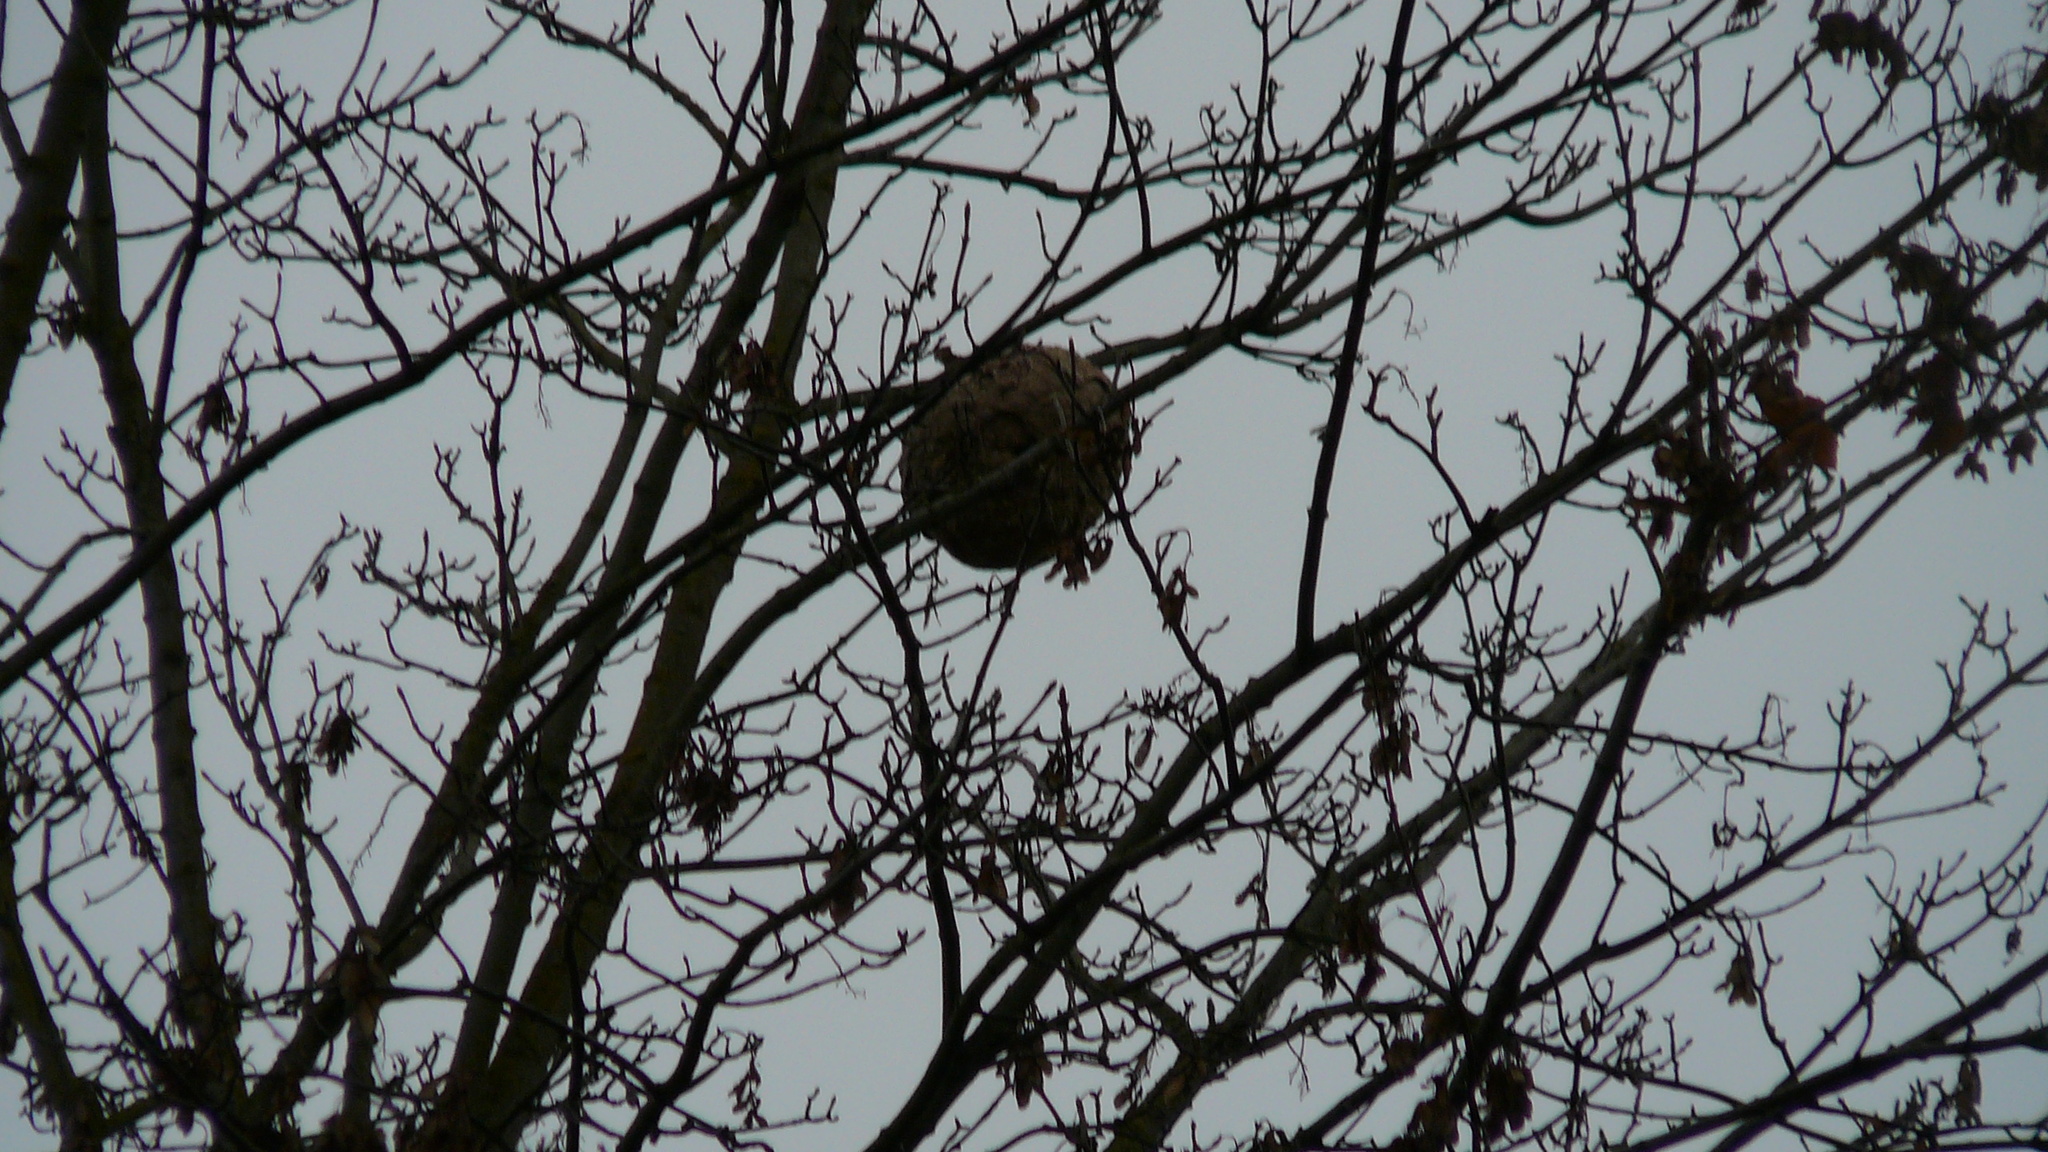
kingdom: Animalia
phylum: Arthropoda
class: Insecta
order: Hymenoptera
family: Vespidae
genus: Vespa
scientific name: Vespa velutina
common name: Asian hornet
